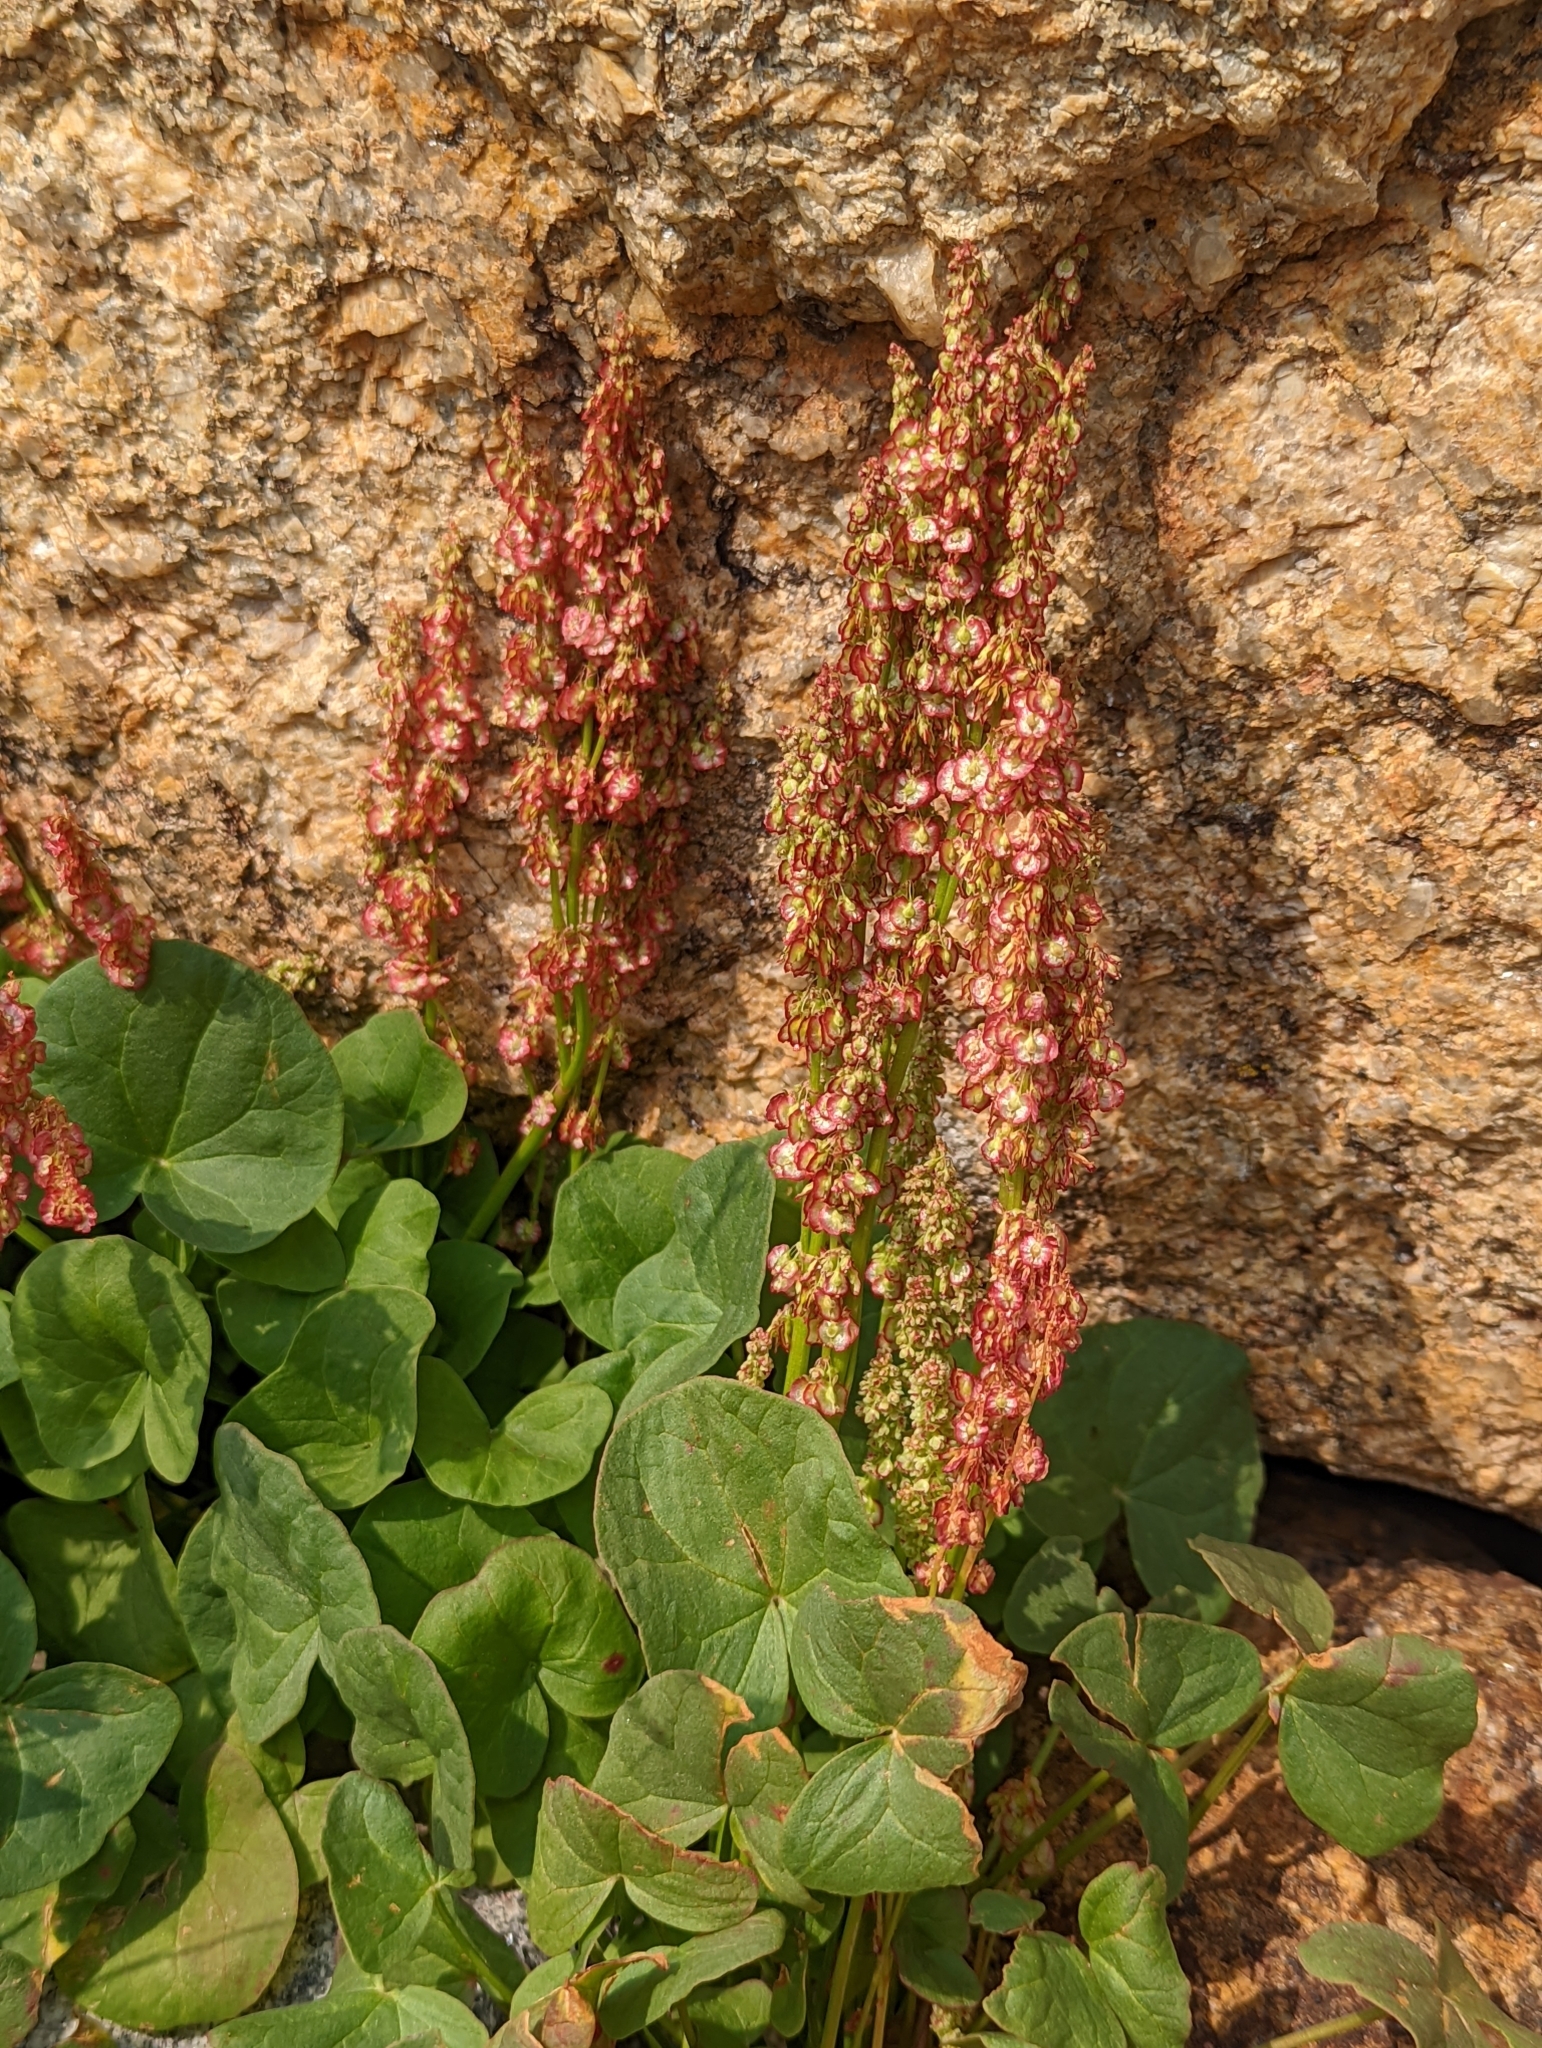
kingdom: Plantae
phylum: Tracheophyta
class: Magnoliopsida
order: Caryophyllales
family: Polygonaceae
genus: Oxyria
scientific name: Oxyria digyna
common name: Alpine mountain-sorrel
